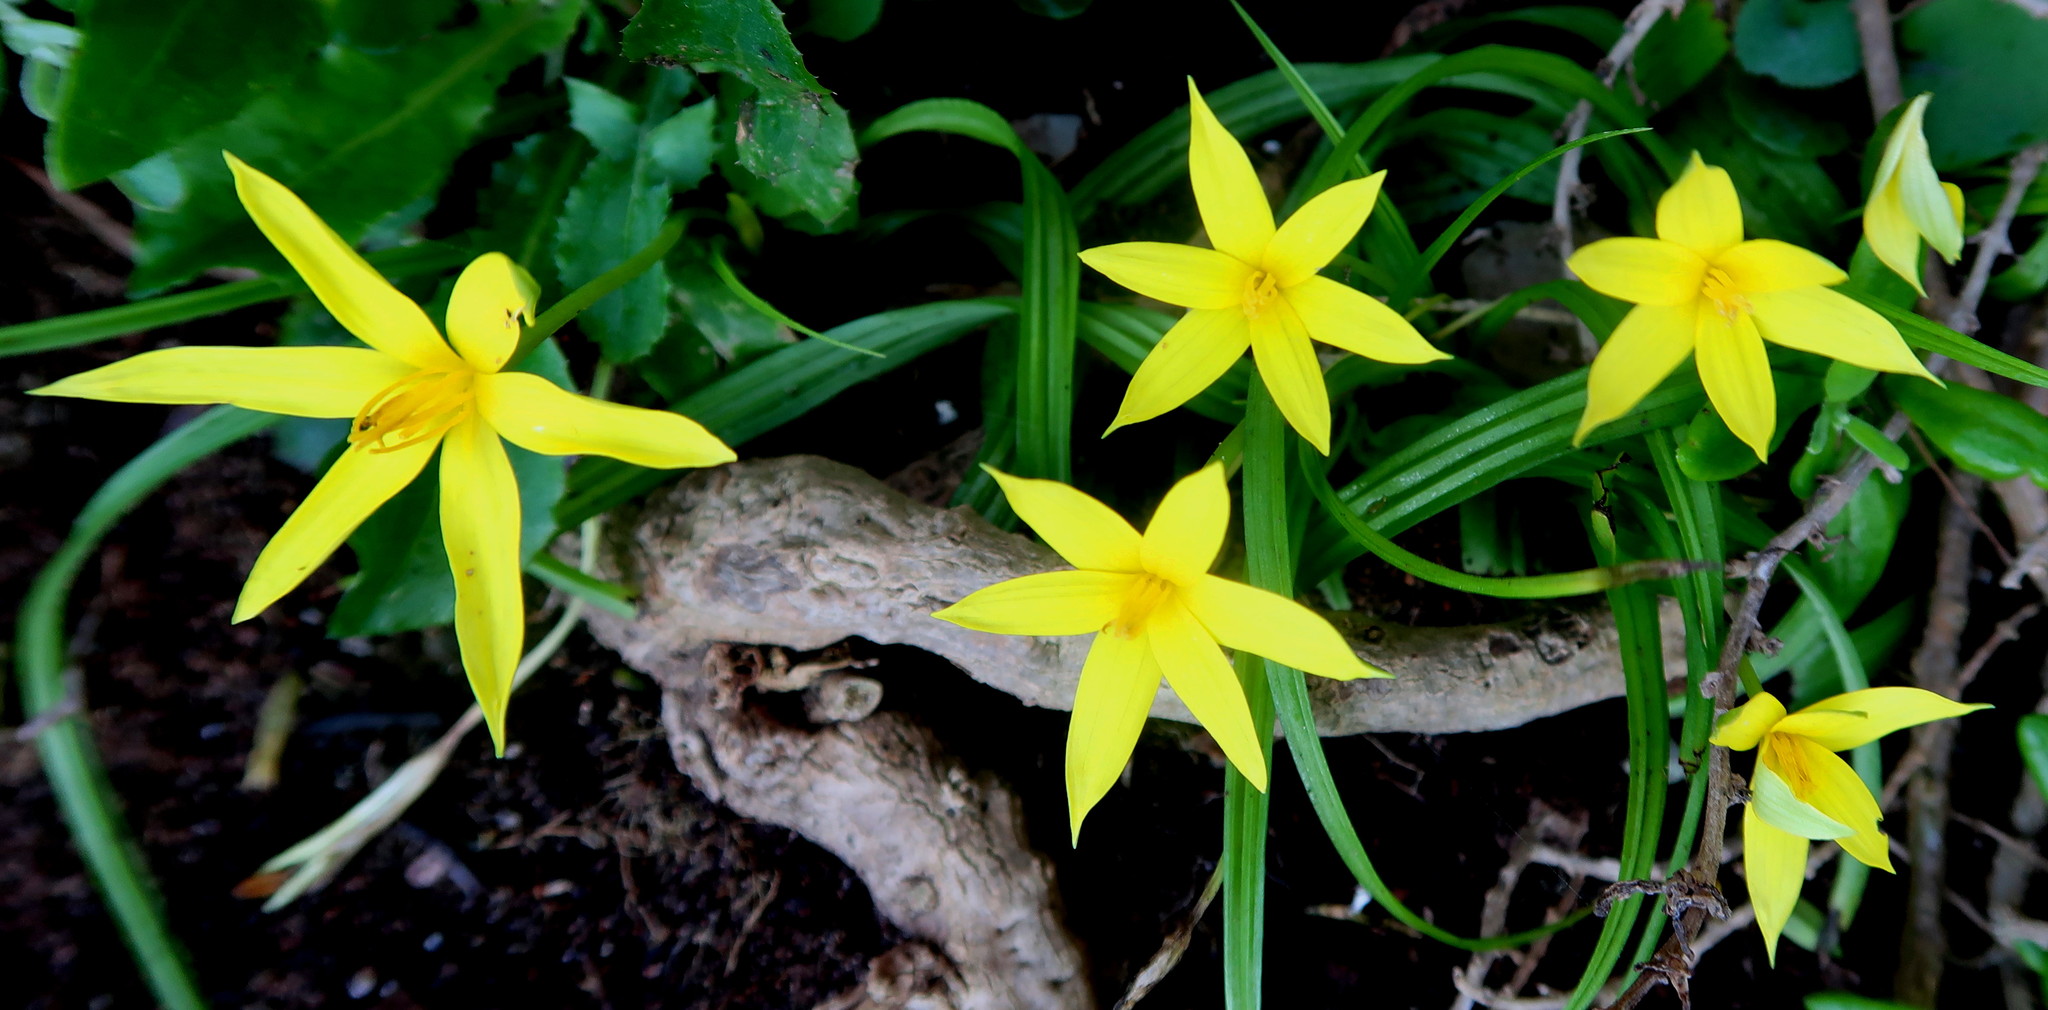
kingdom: Plantae
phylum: Tracheophyta
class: Liliopsida
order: Asparagales
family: Hypoxidaceae
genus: Empodium
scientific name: Empodium plicatum
